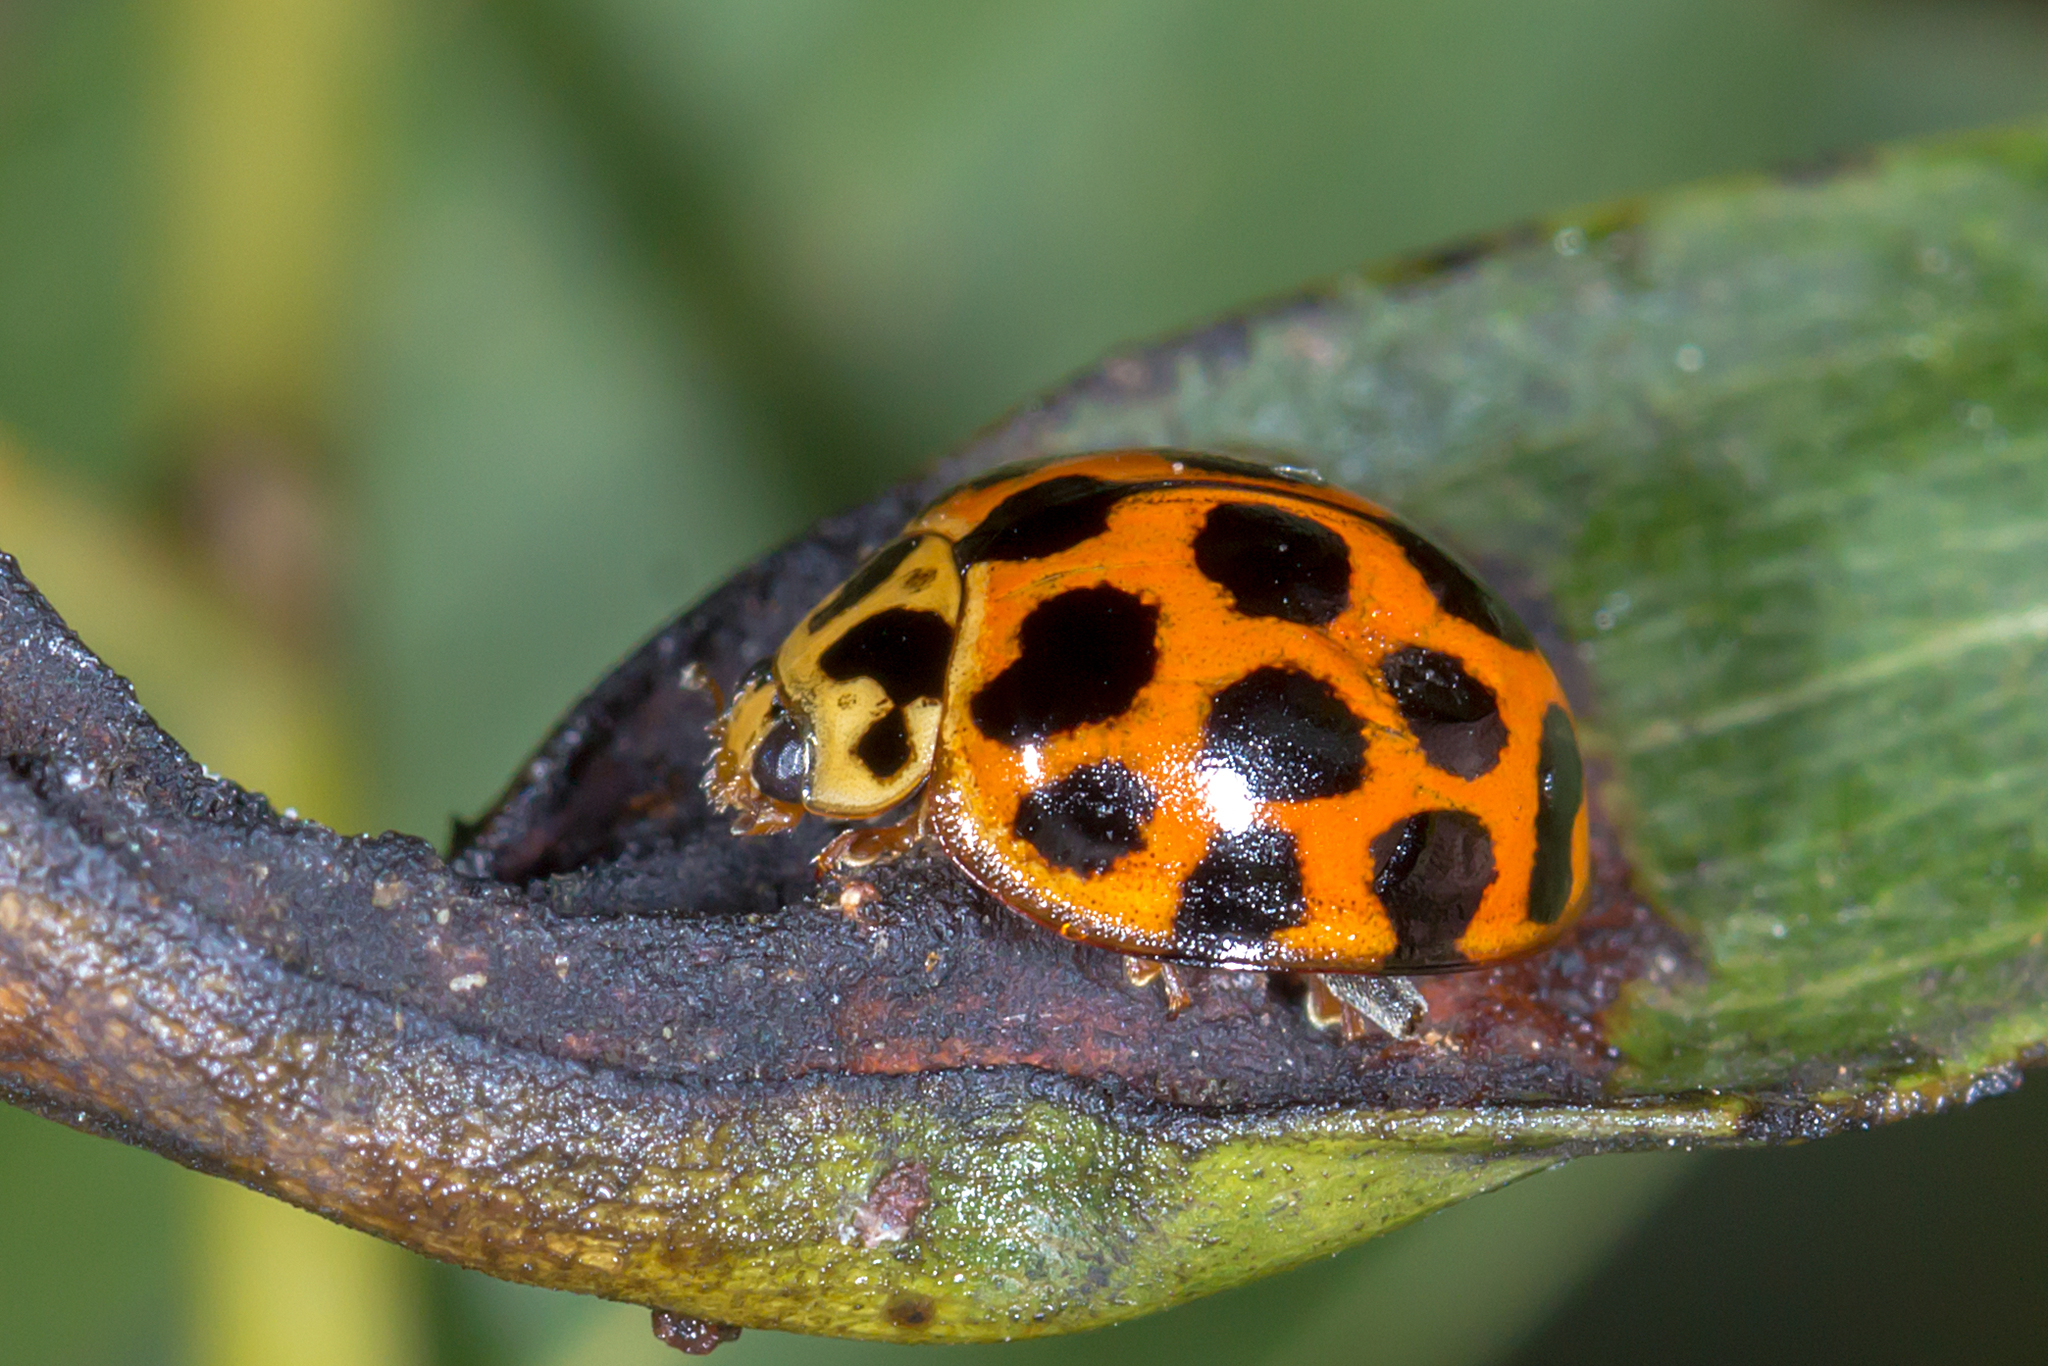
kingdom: Animalia
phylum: Arthropoda
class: Insecta
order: Coleoptera
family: Coccinellidae
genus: Harmonia
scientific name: Harmonia conformis
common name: Common spotted ladybird beetle
